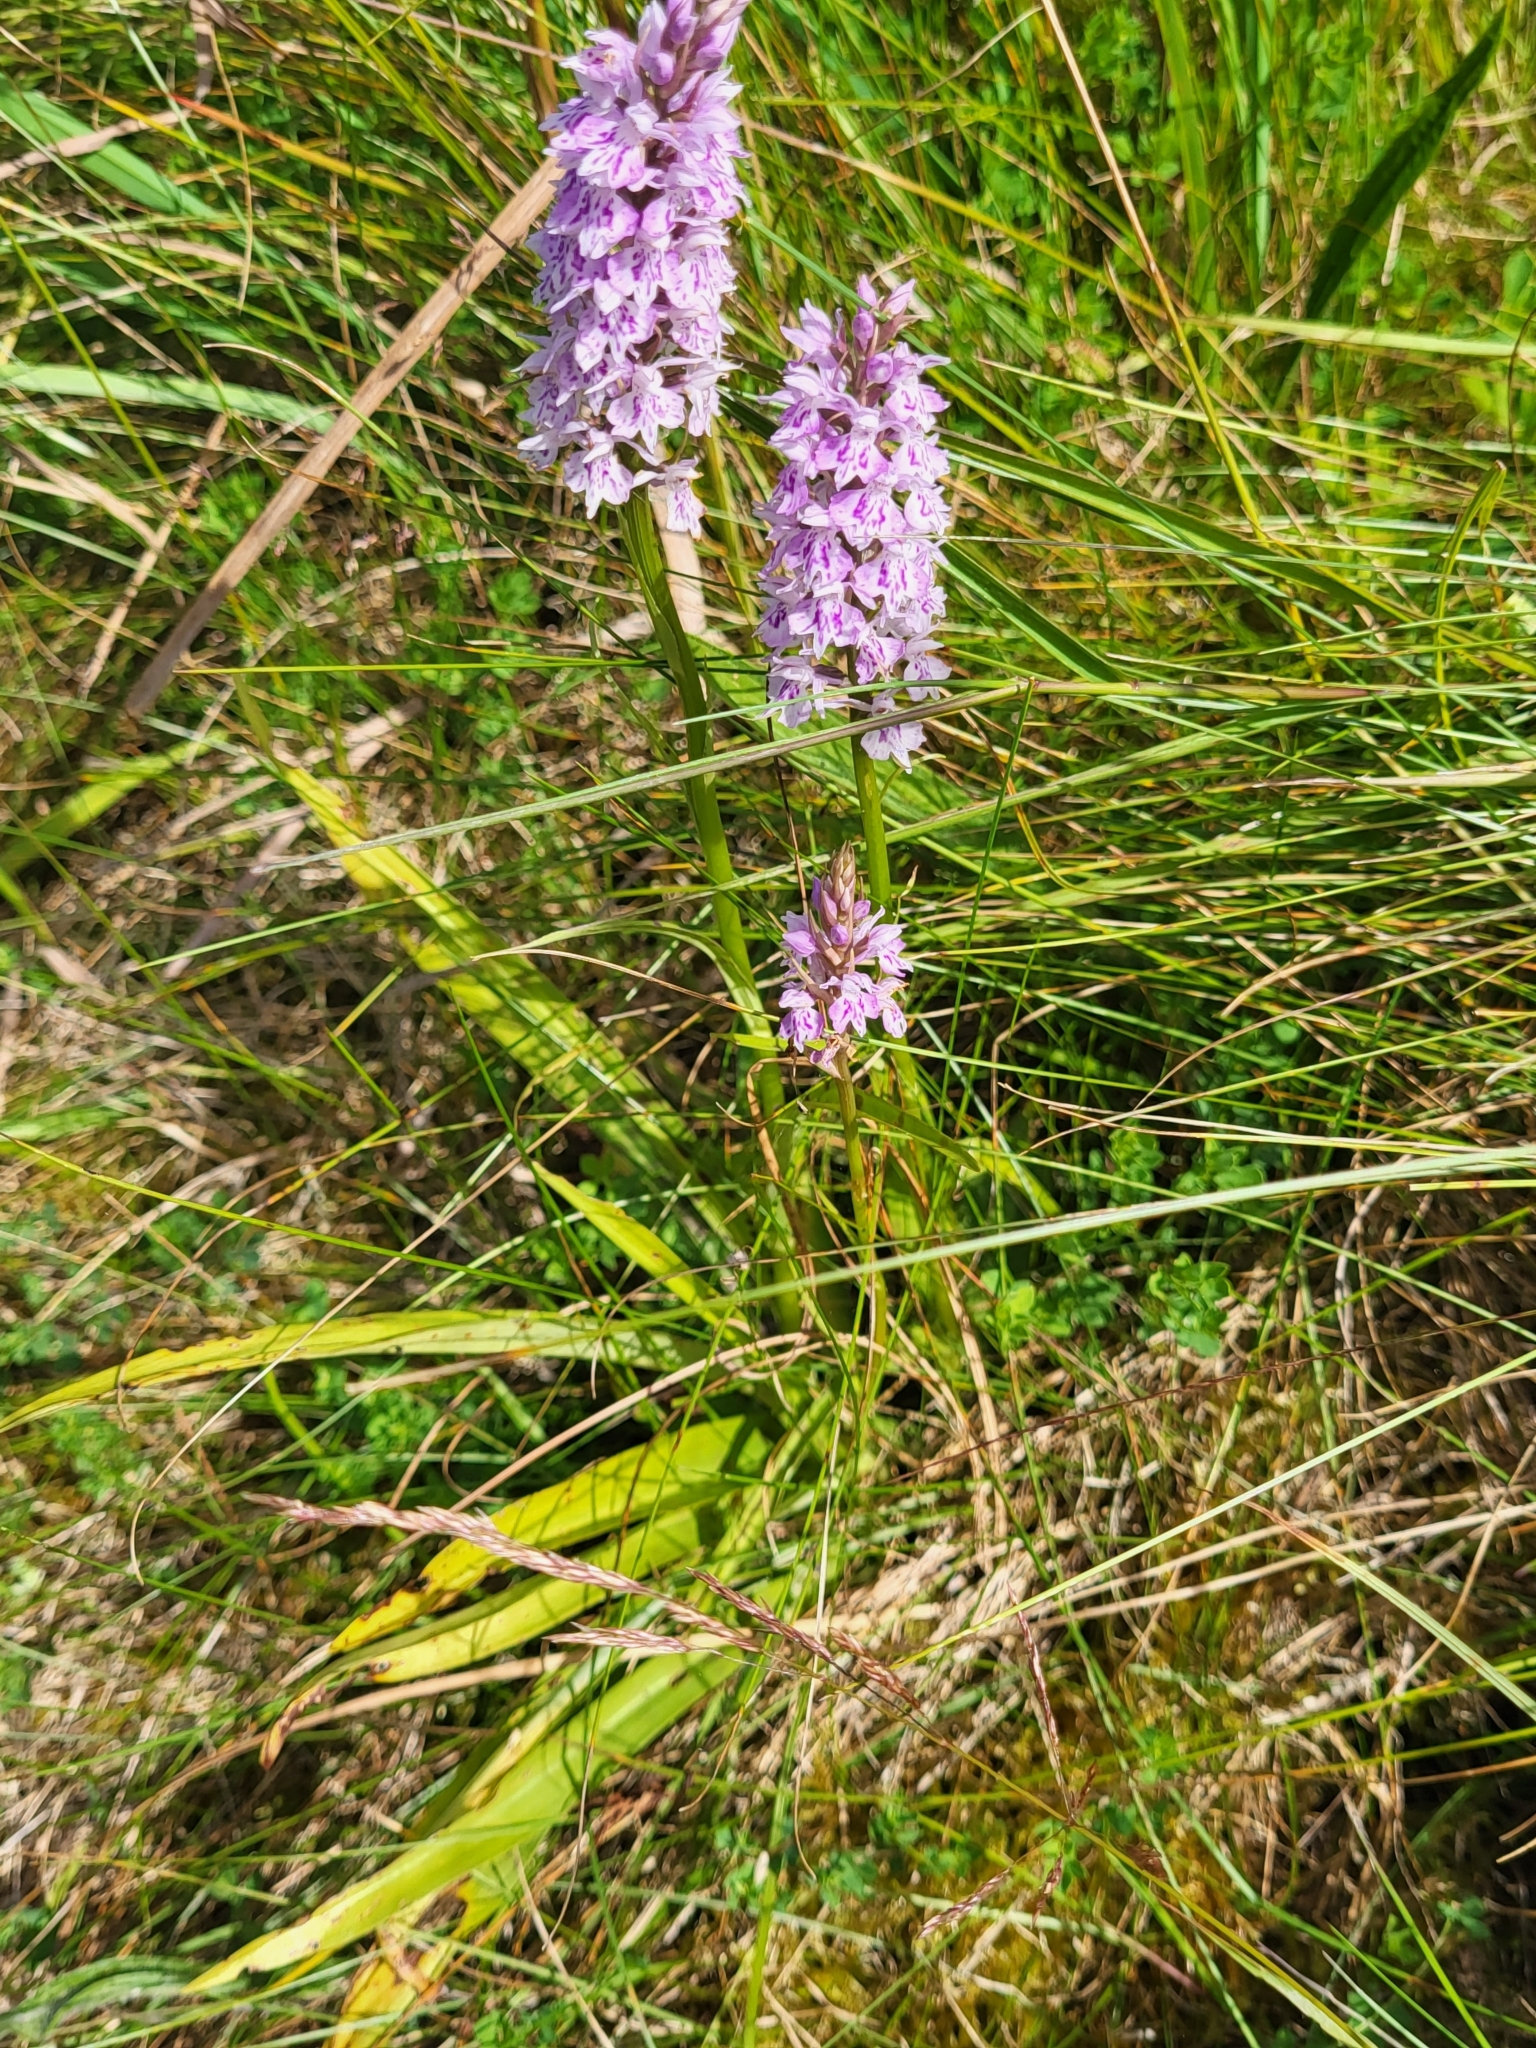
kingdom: Plantae
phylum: Tracheophyta
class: Liliopsida
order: Asparagales
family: Orchidaceae
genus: Dactylorhiza
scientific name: Dactylorhiza maculata
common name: Heath spotted-orchid
